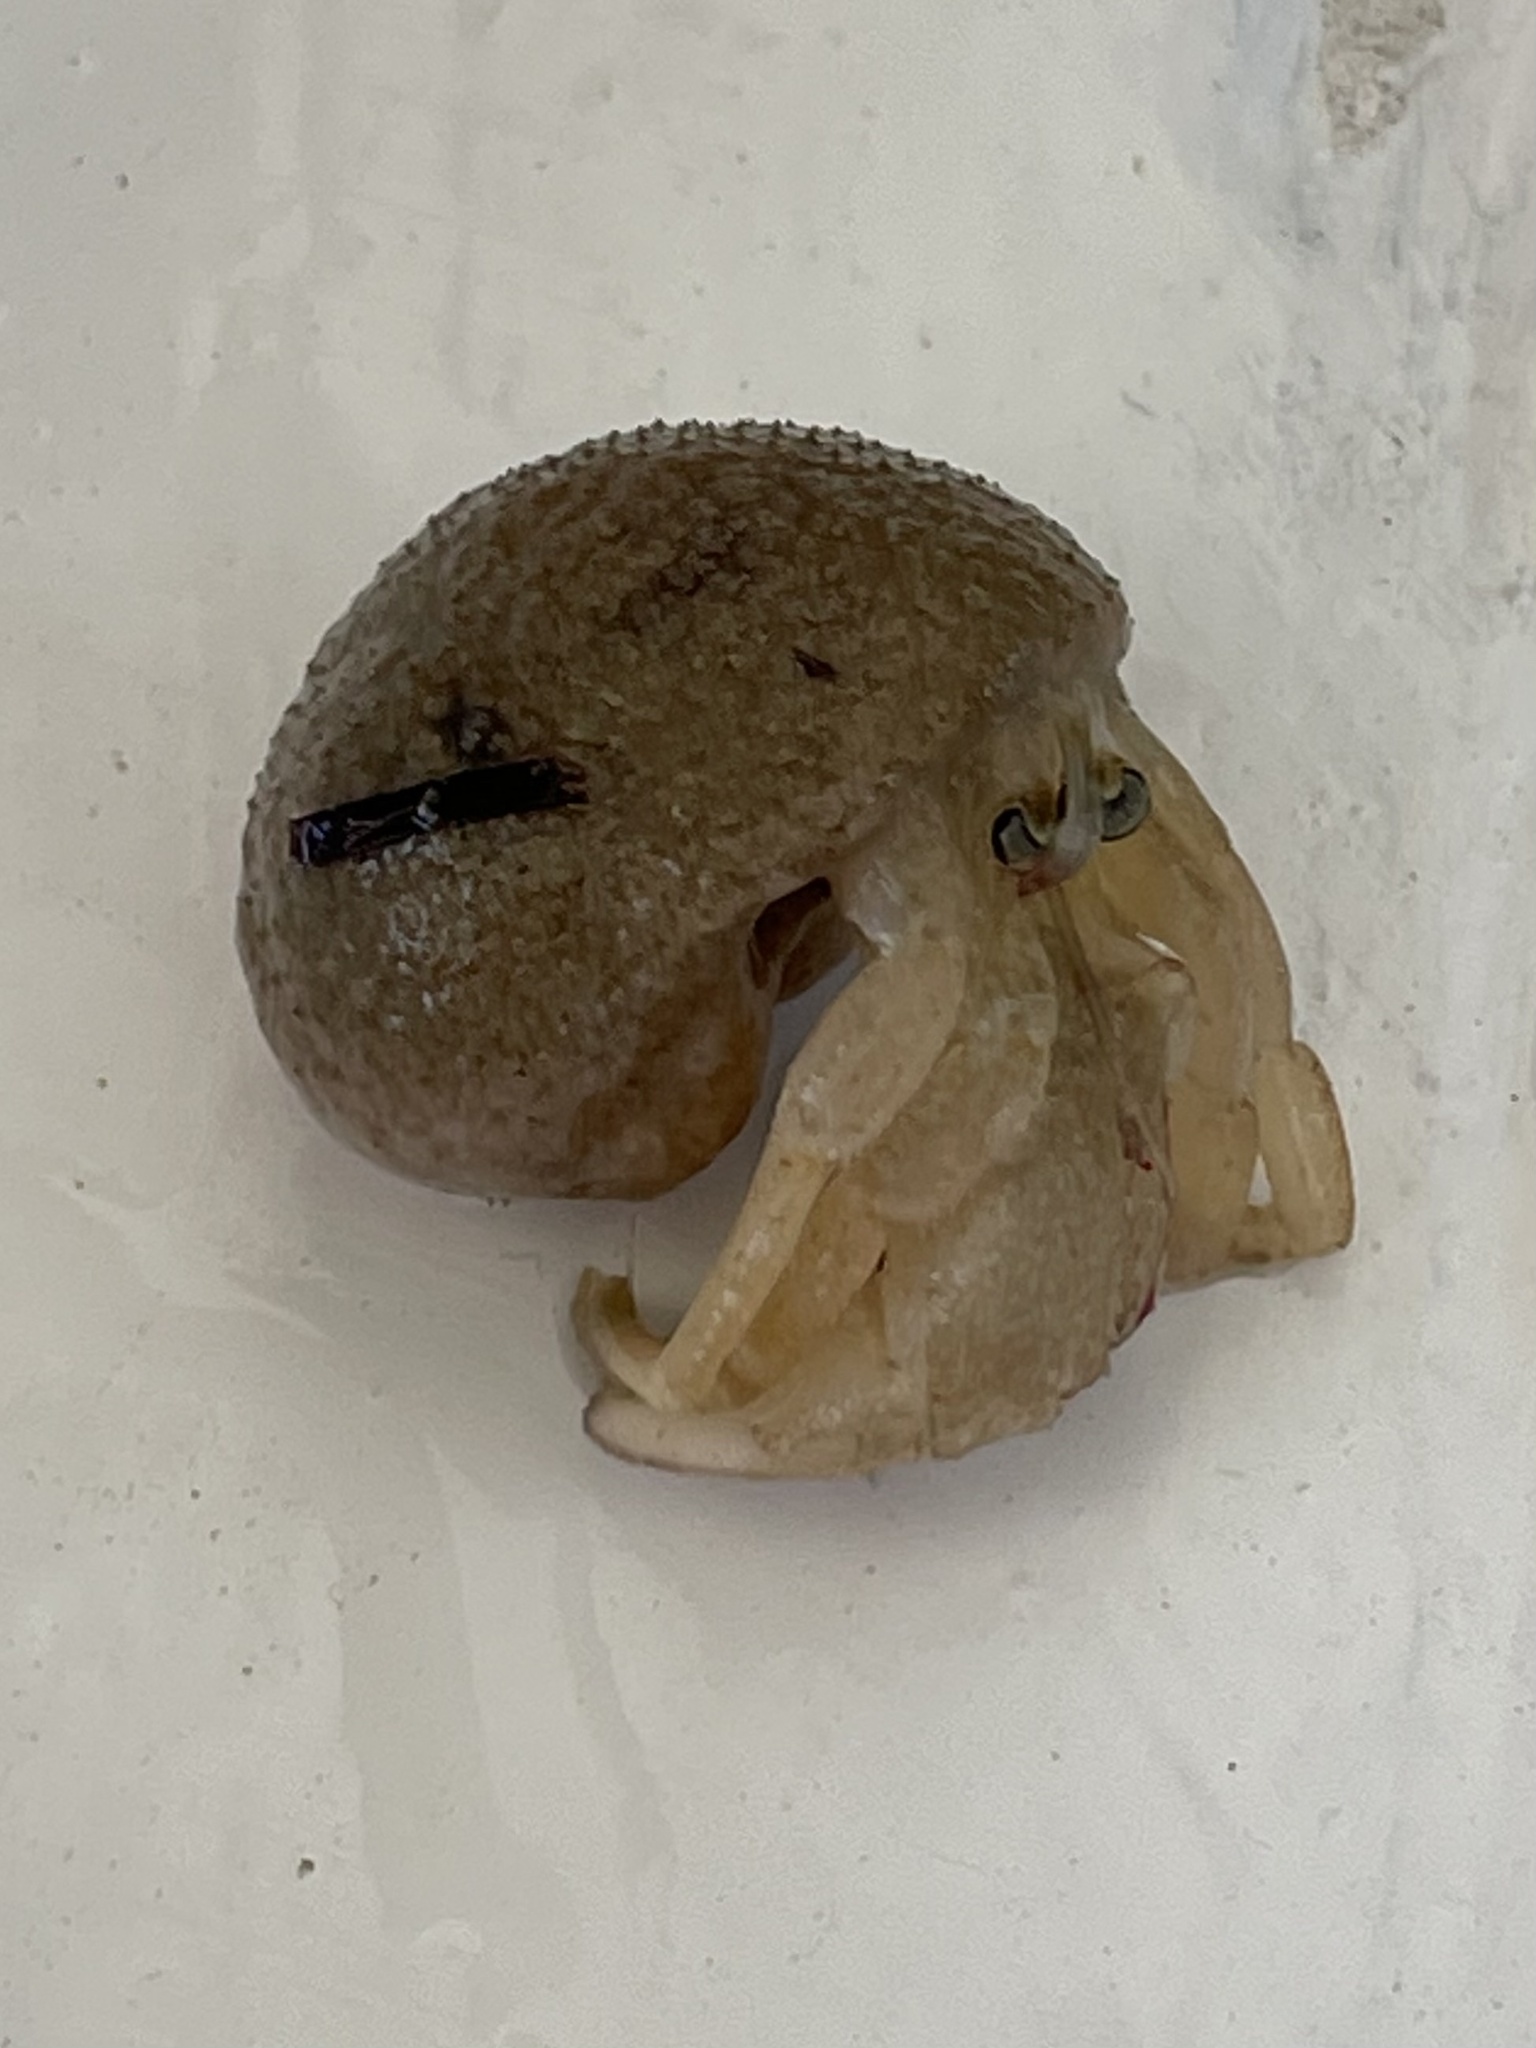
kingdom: Animalia
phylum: Arthropoda
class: Malacostraca
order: Decapoda
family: Paguridae
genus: Pagurus
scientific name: Pagurus pollicaris
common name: Flatclaw hermit
